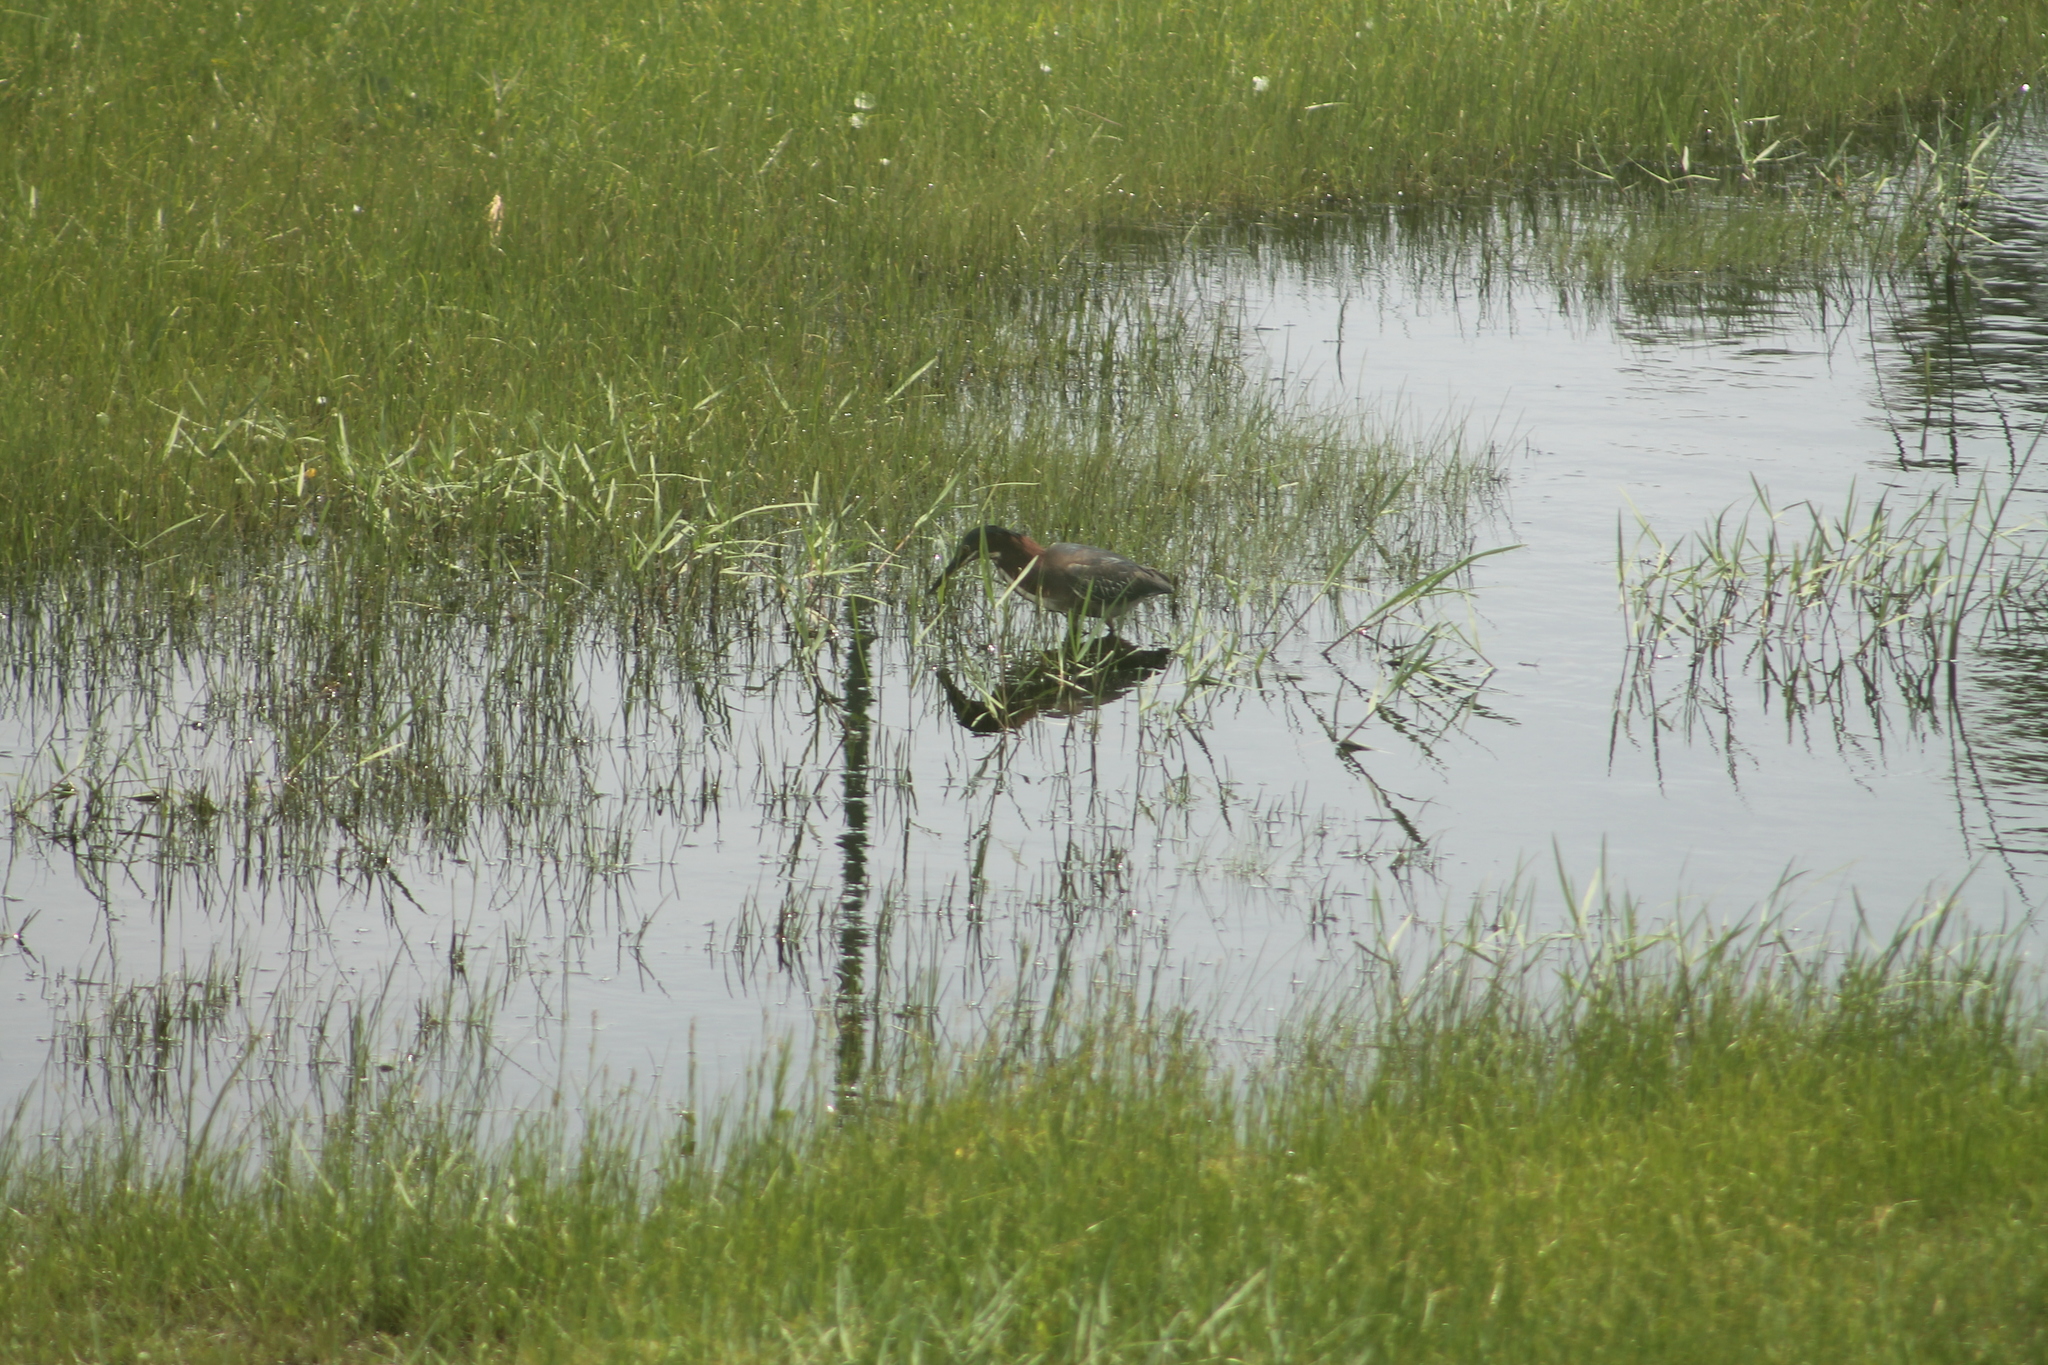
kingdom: Animalia
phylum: Chordata
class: Aves
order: Pelecaniformes
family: Ardeidae
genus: Butorides
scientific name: Butorides virescens
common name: Green heron
